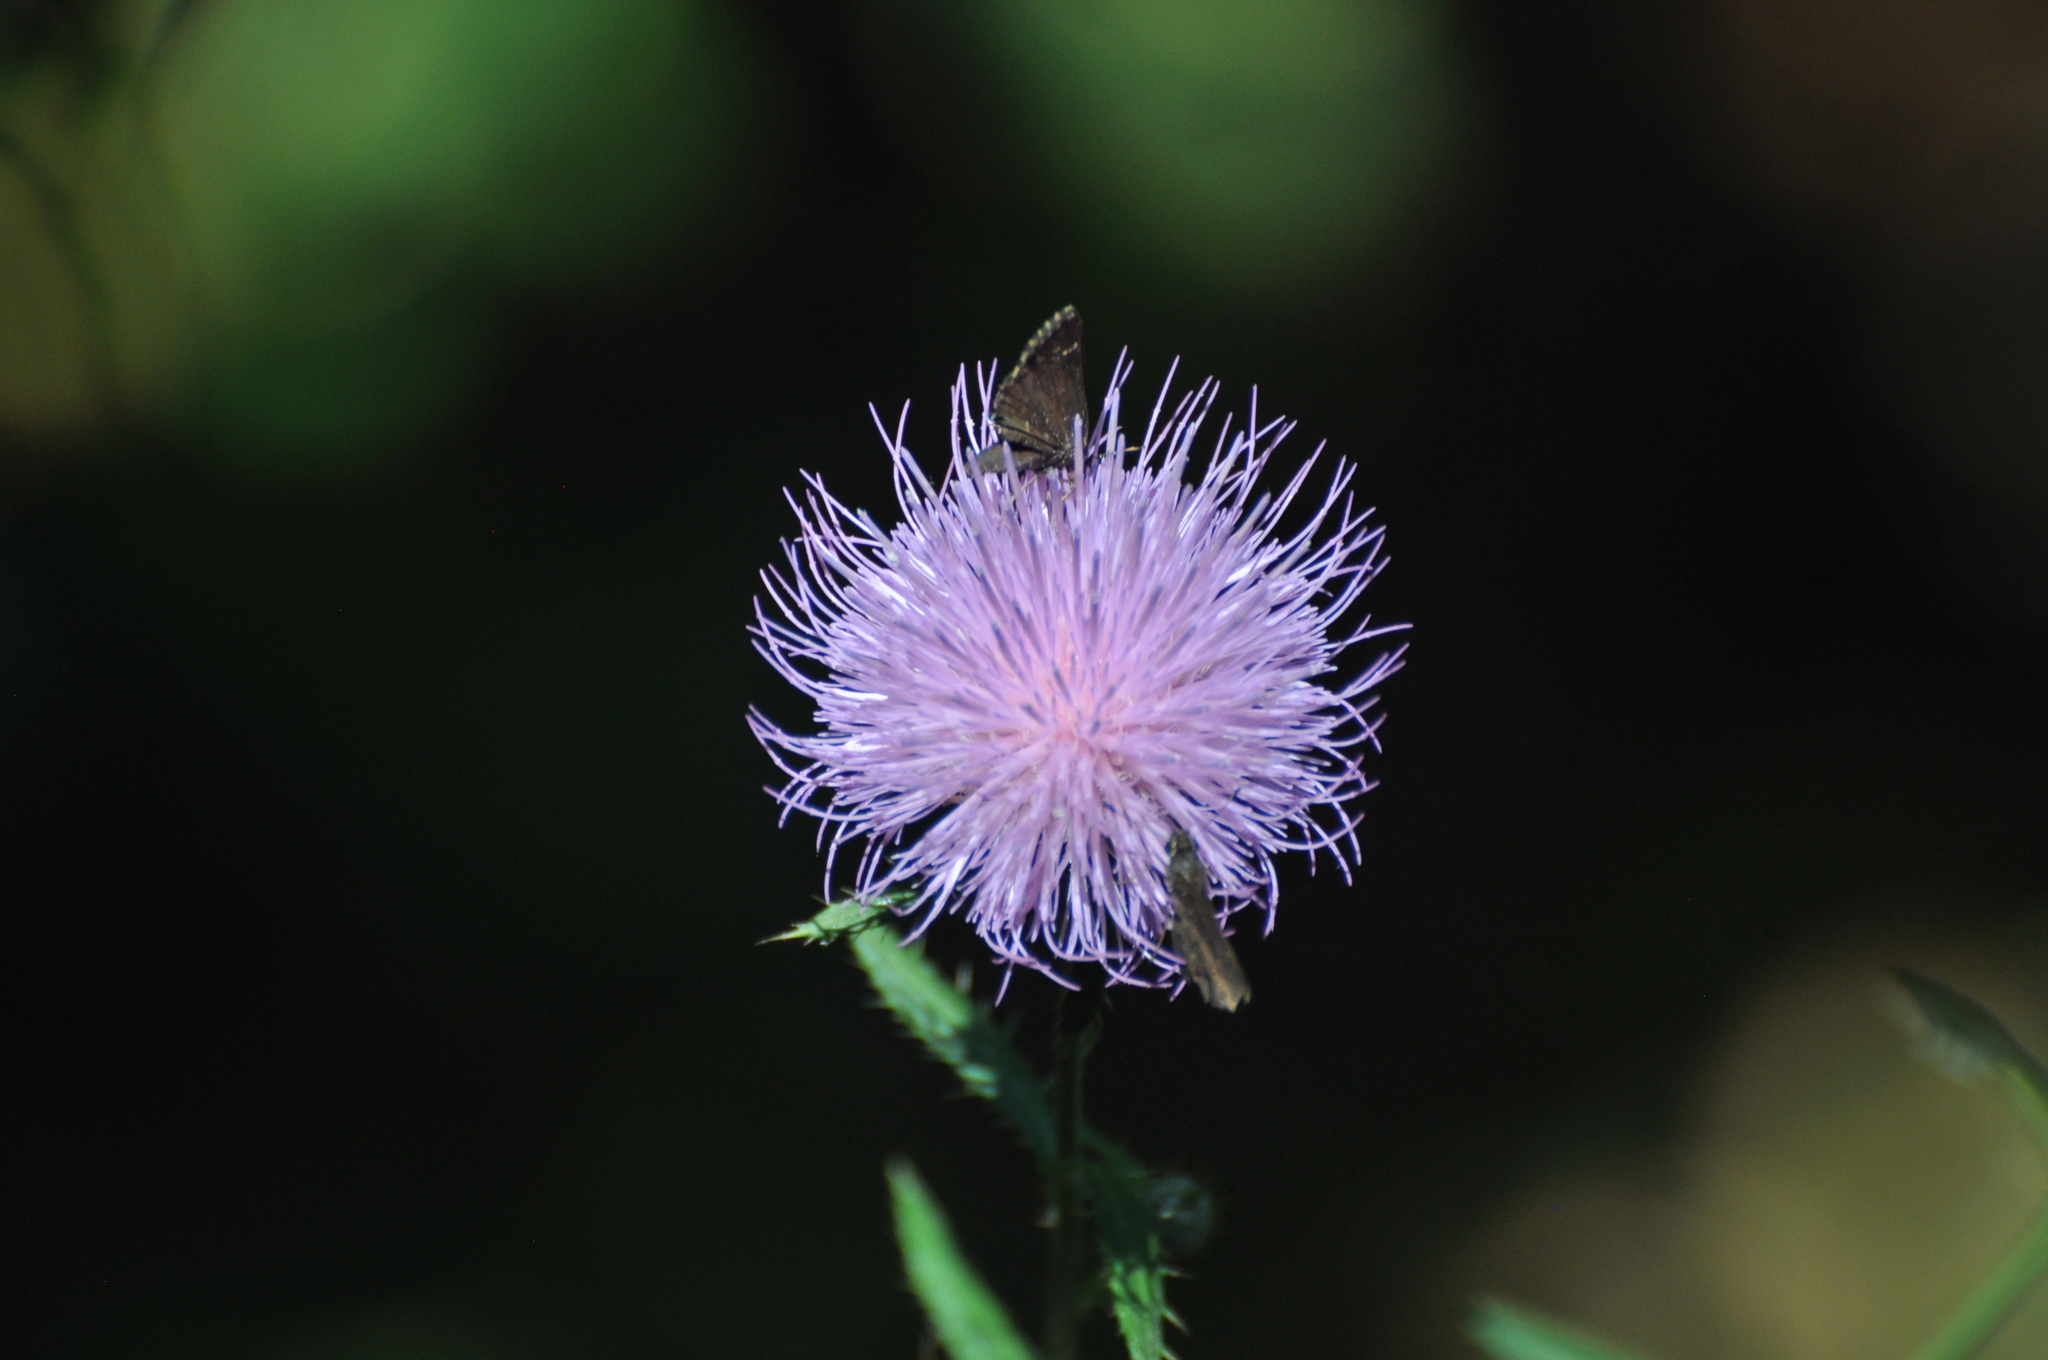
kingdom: Animalia
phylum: Arthropoda
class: Insecta
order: Lepidoptera
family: Hesperiidae
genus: Mastor
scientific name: Mastor celia
